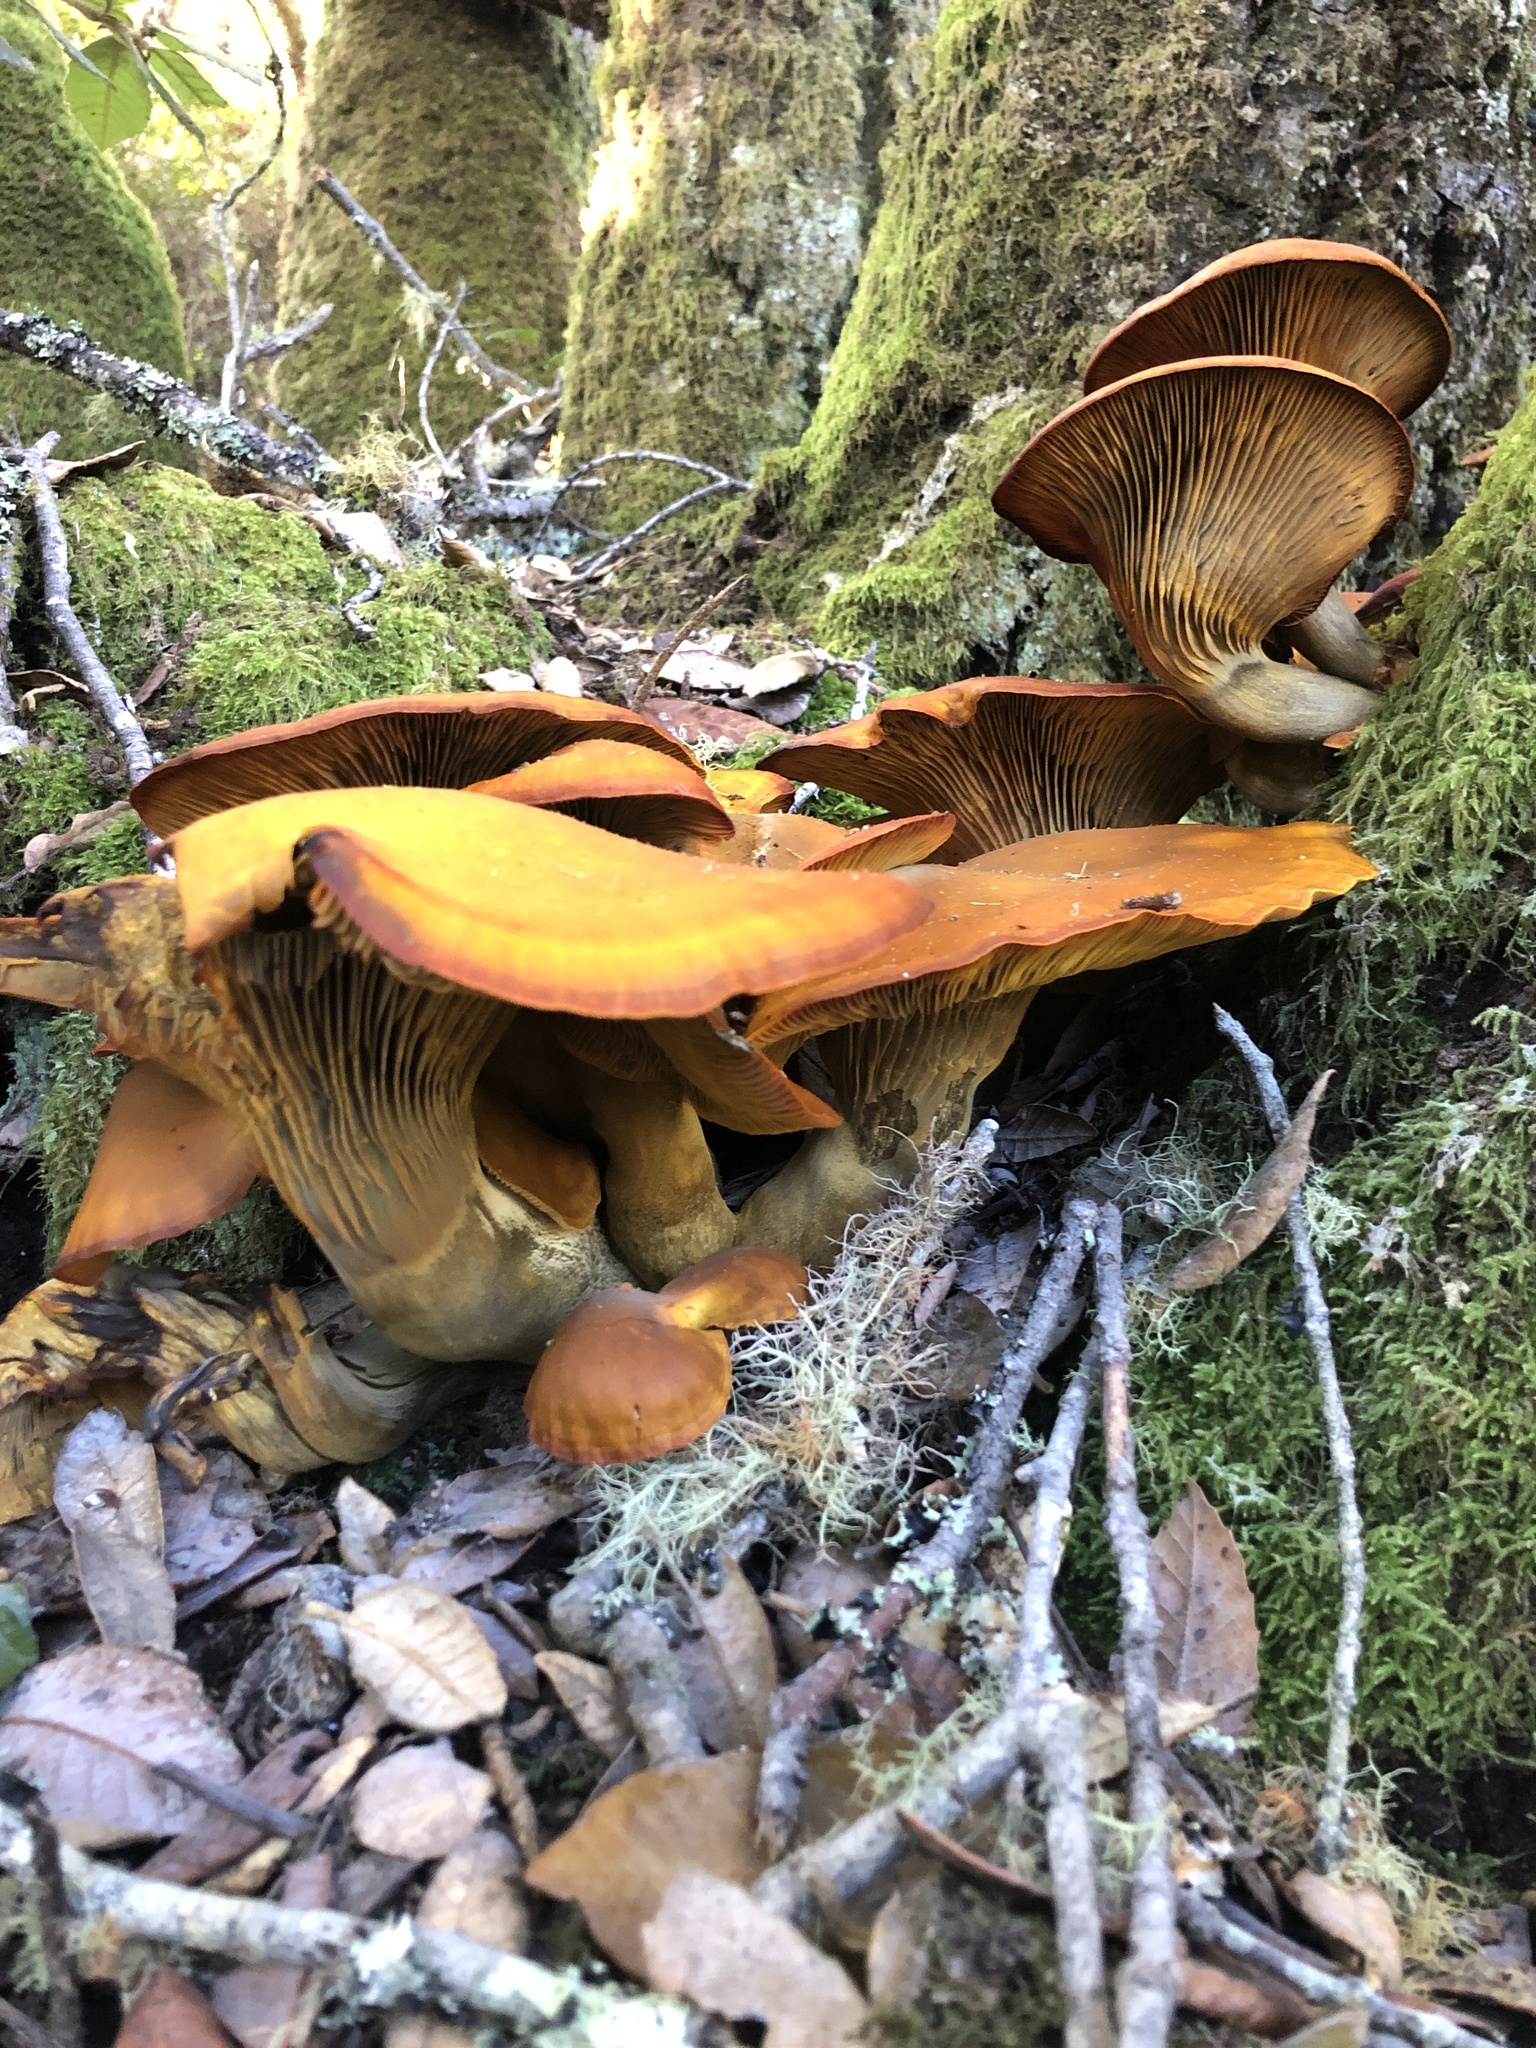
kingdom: Fungi
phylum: Basidiomycota
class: Agaricomycetes
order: Agaricales
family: Omphalotaceae
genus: Omphalotus
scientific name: Omphalotus olivascens
